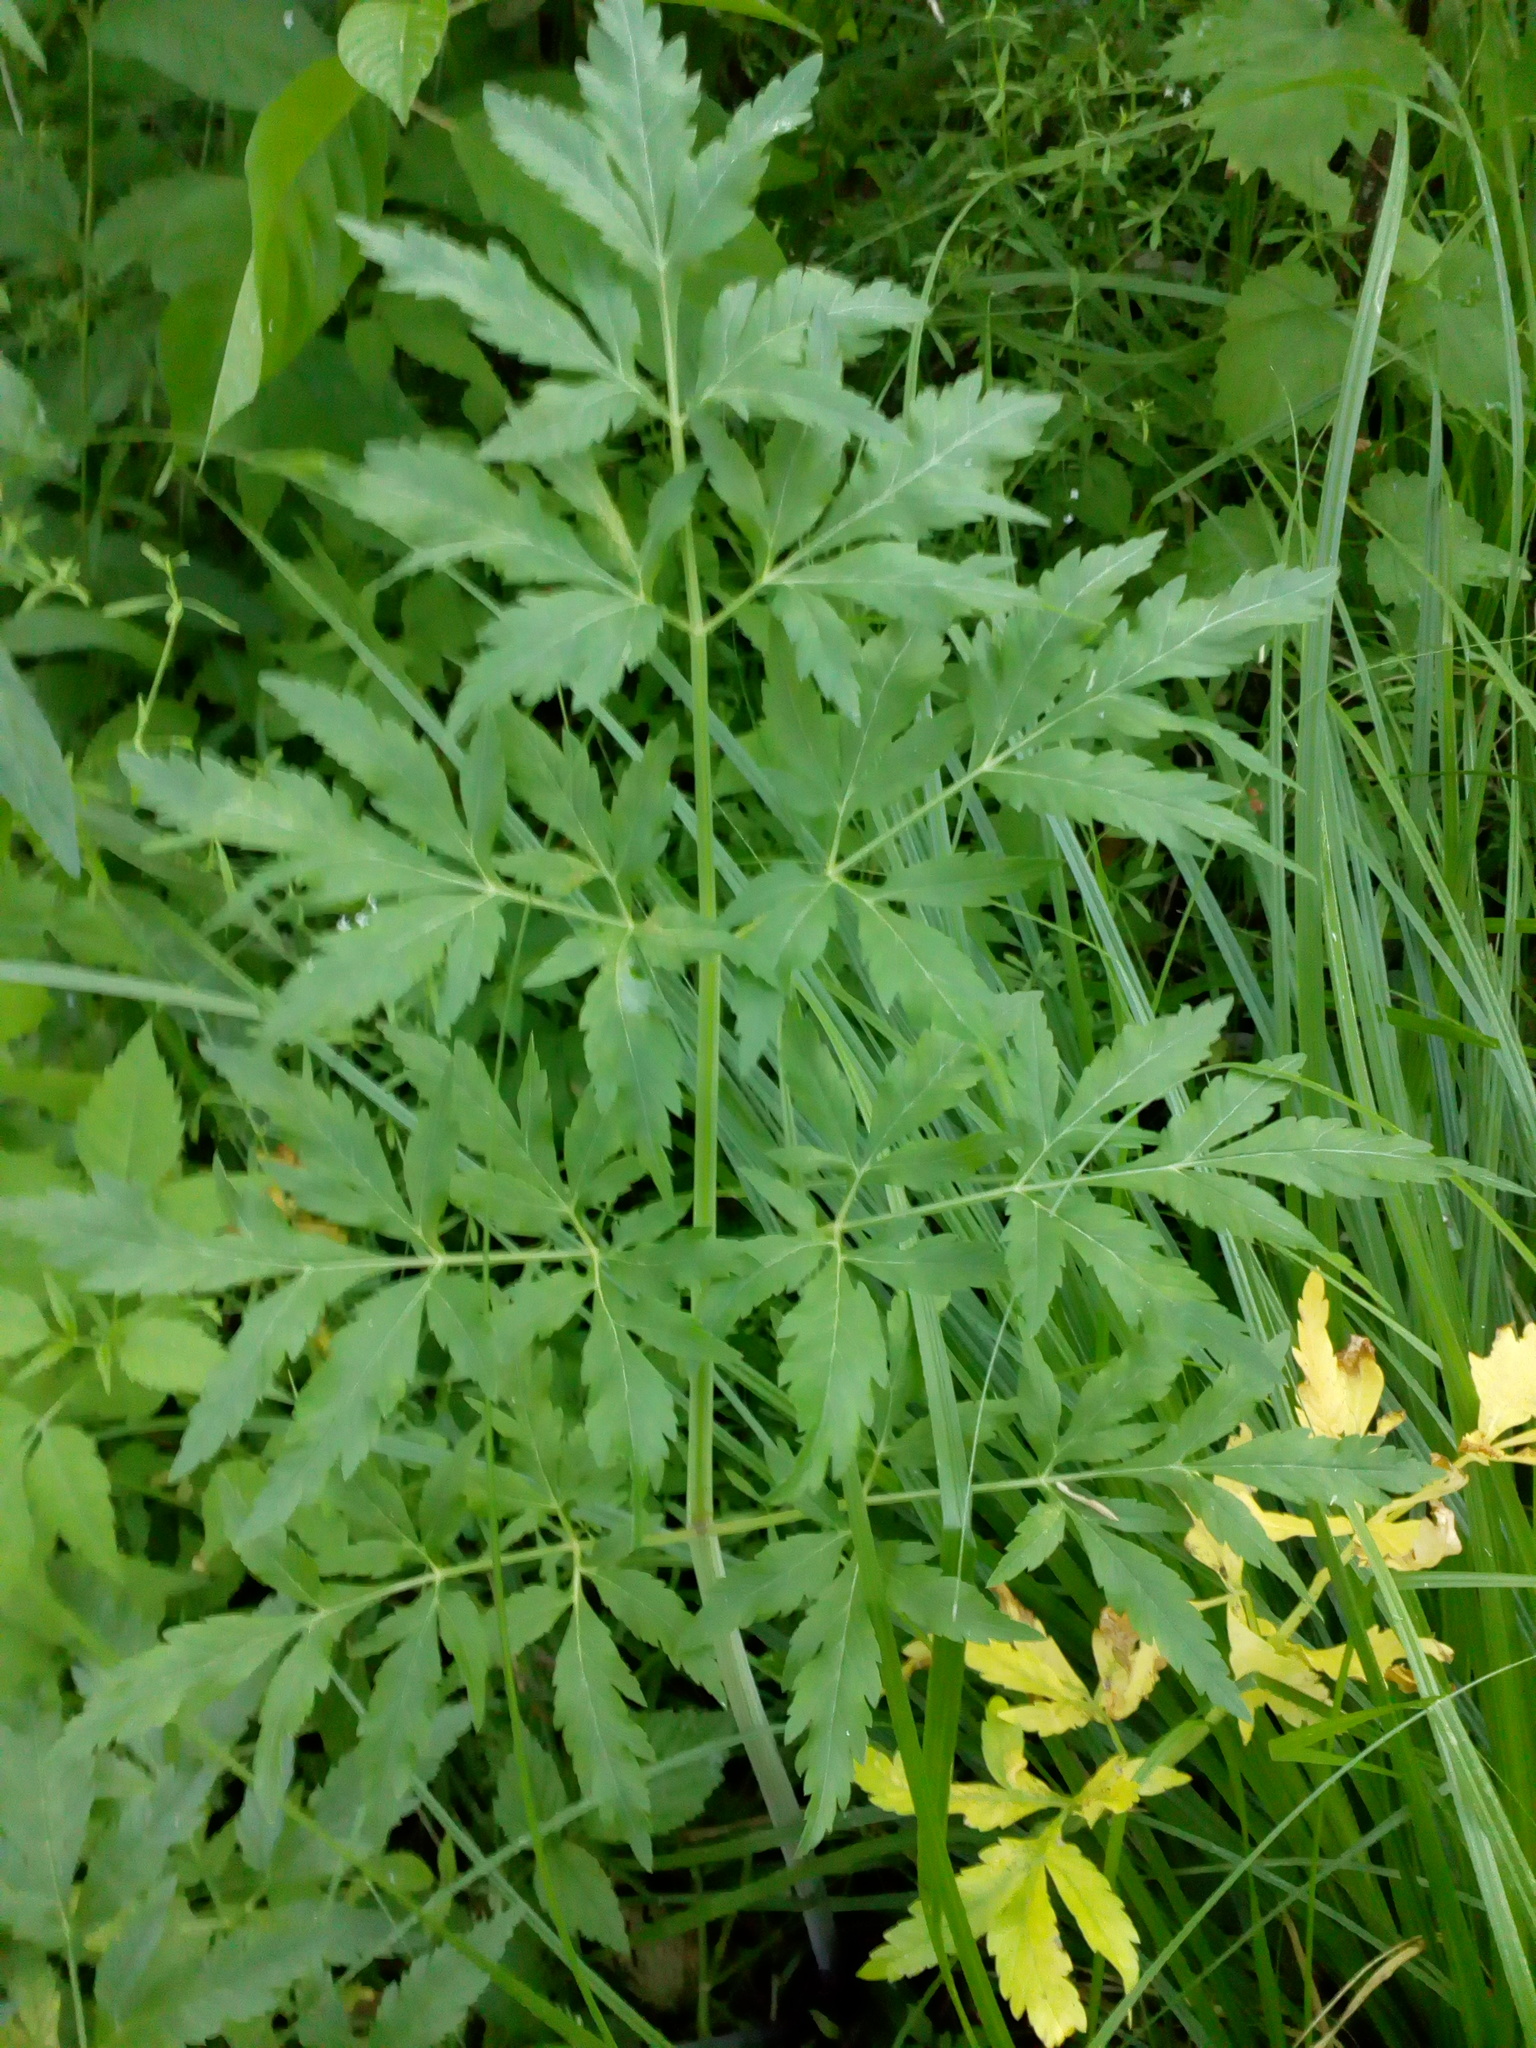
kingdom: Plantae
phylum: Tracheophyta
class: Magnoliopsida
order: Apiales
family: Apiaceae
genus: Cicuta
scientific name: Cicuta virosa
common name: Cowbane
